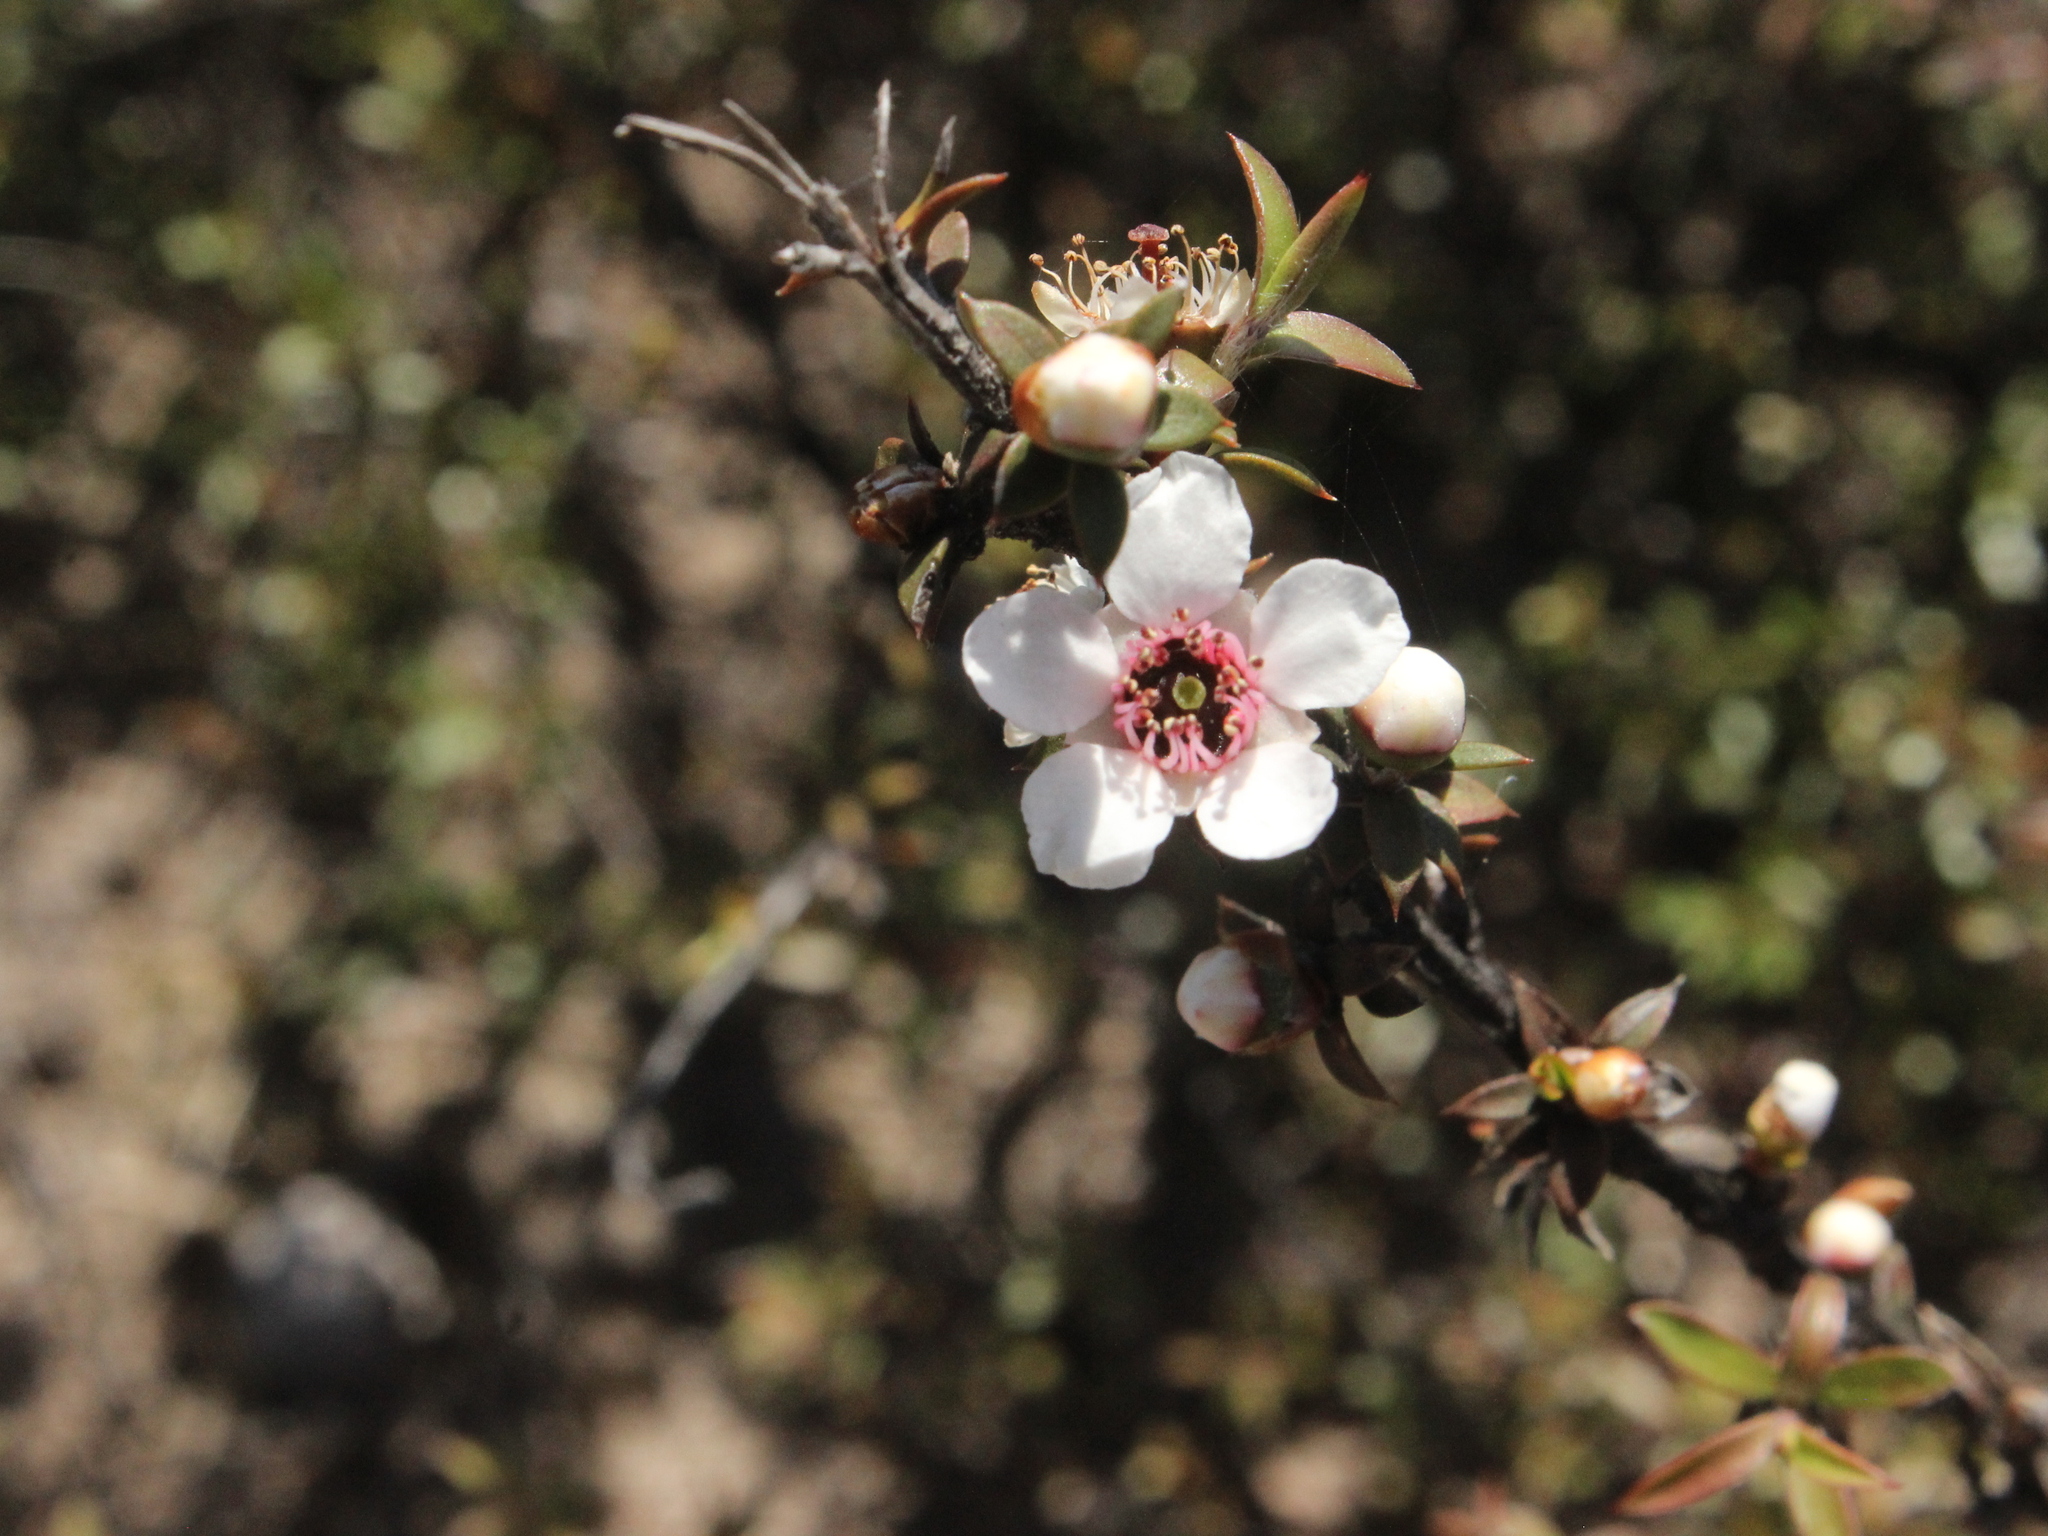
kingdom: Plantae
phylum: Tracheophyta
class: Magnoliopsida
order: Myrtales
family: Myrtaceae
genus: Leptospermum
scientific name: Leptospermum scoparium
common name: Broom tea-tree
